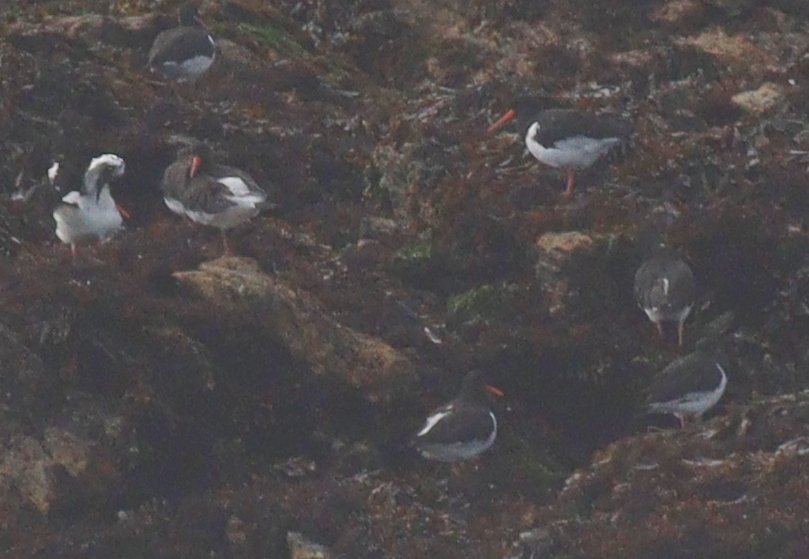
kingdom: Animalia
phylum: Chordata
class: Aves
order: Charadriiformes
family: Haematopodidae
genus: Haematopus
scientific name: Haematopus ostralegus
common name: Eurasian oystercatcher
